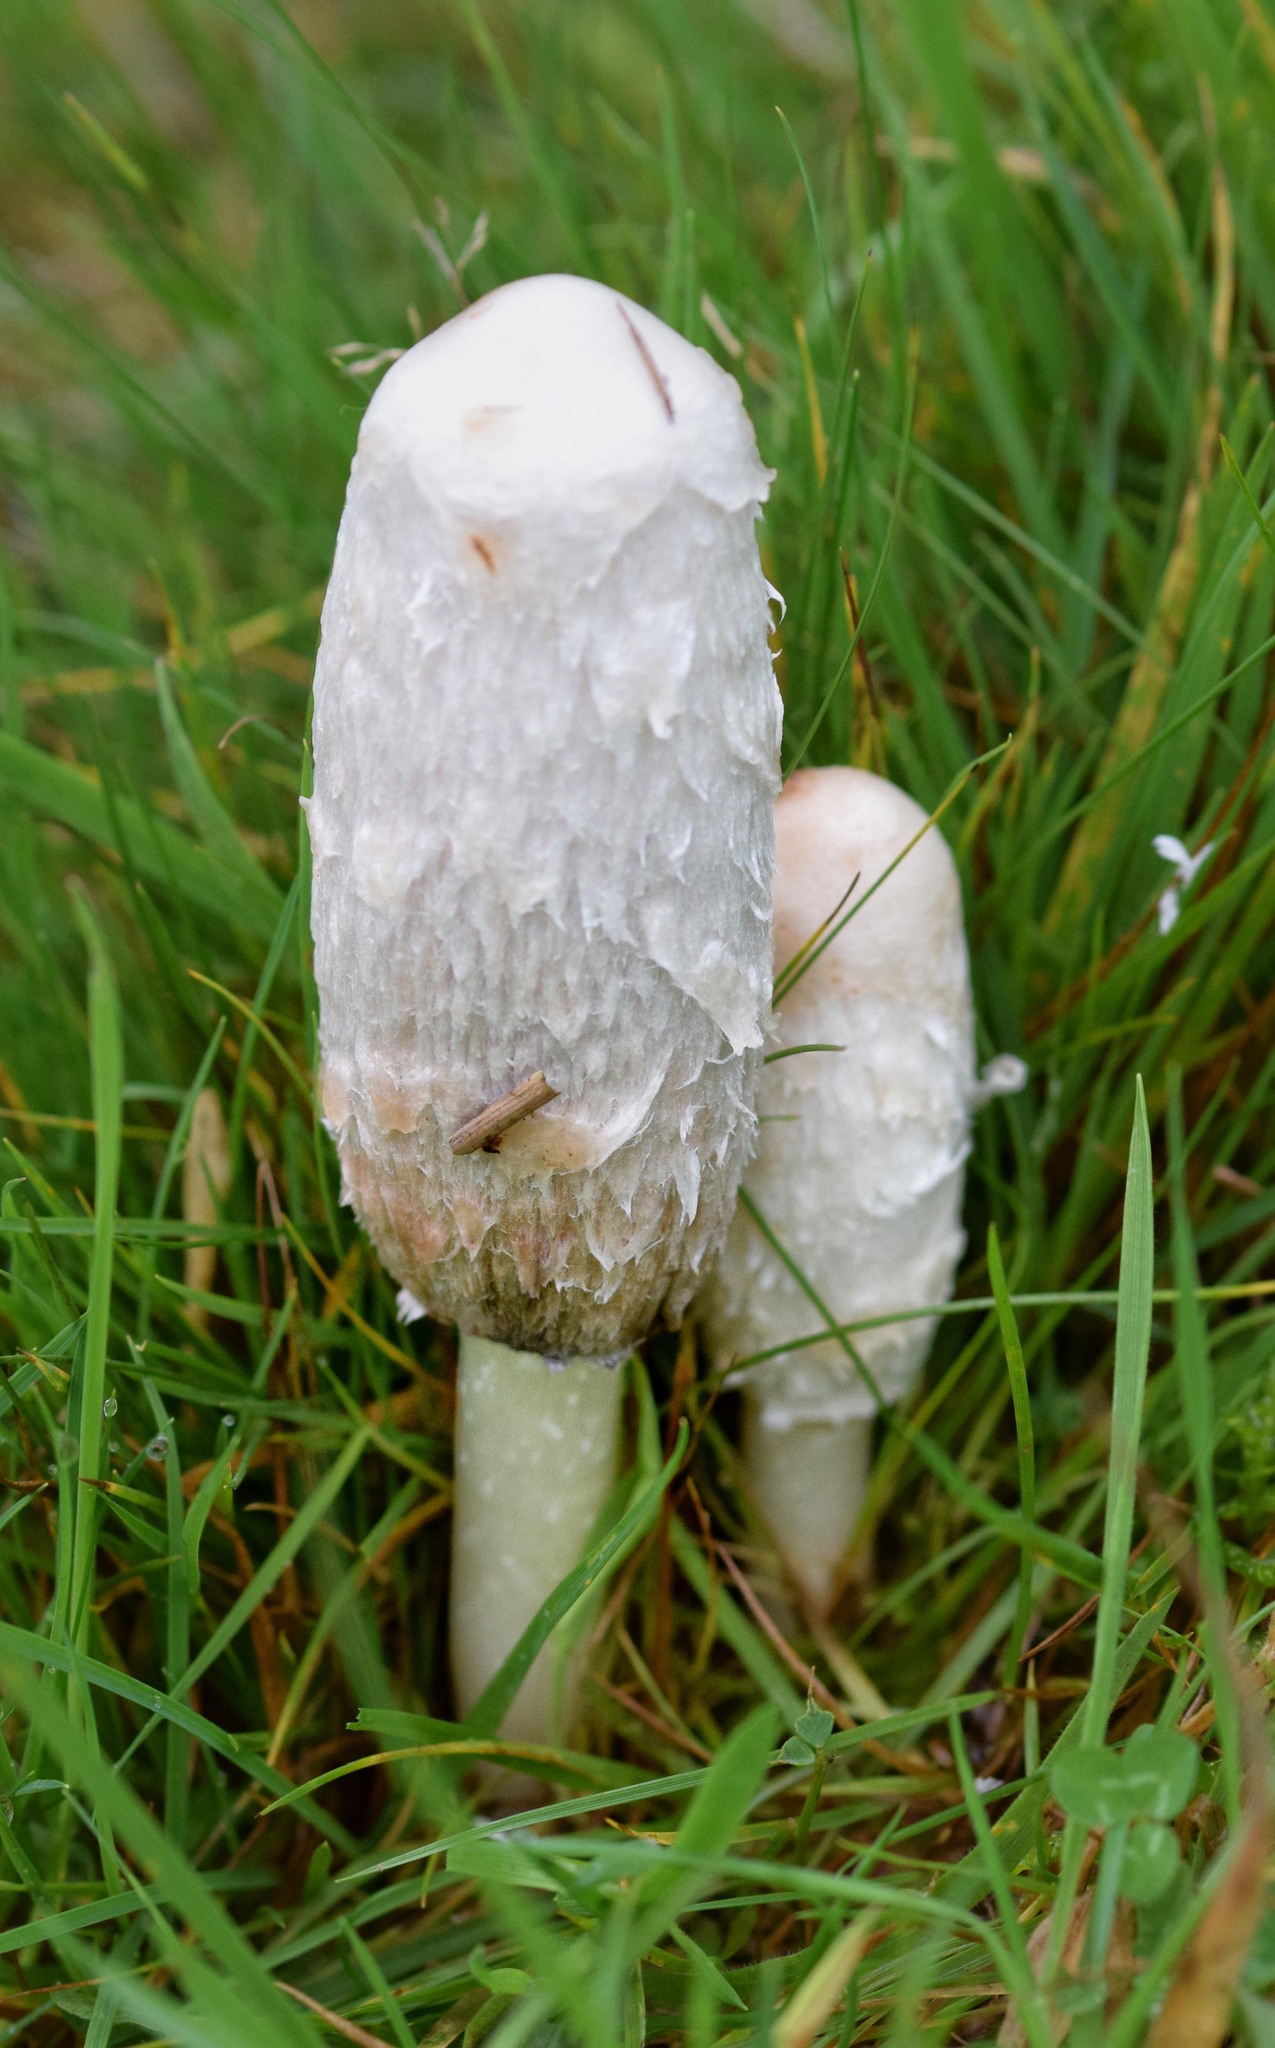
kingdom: Fungi
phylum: Basidiomycota
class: Agaricomycetes
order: Agaricales
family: Agaricaceae
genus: Coprinus
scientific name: Coprinus comatus
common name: Lawyer's wig
